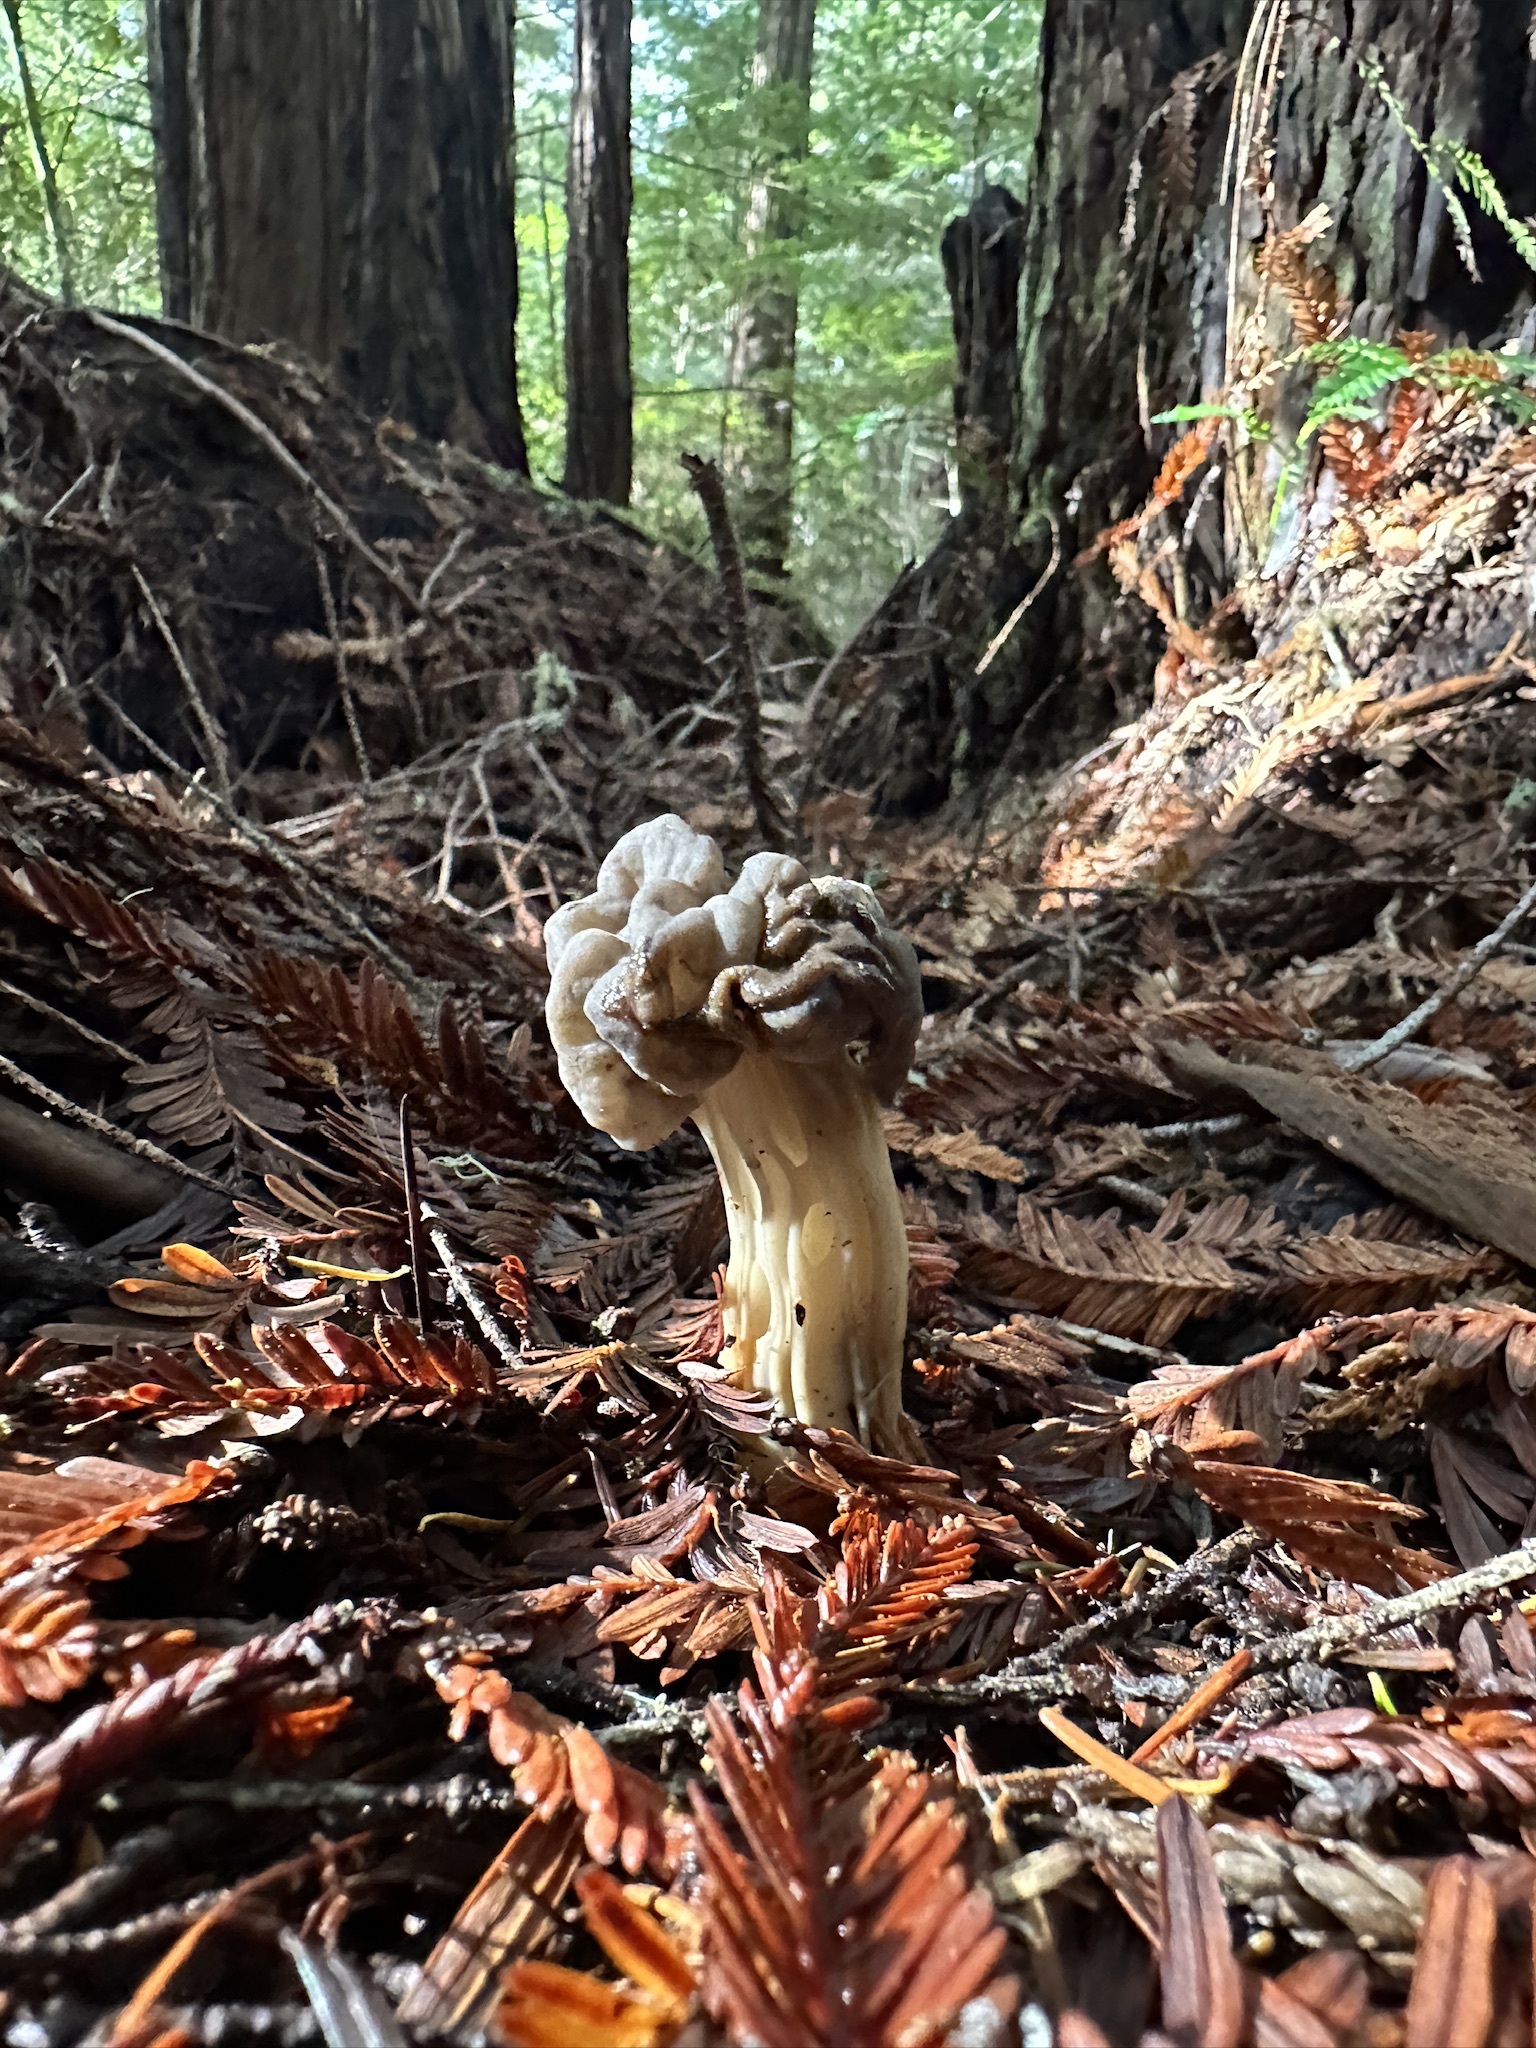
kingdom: Fungi
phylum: Ascomycota
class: Pezizomycetes
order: Pezizales
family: Helvellaceae
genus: Helvella
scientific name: Helvella vespertina
